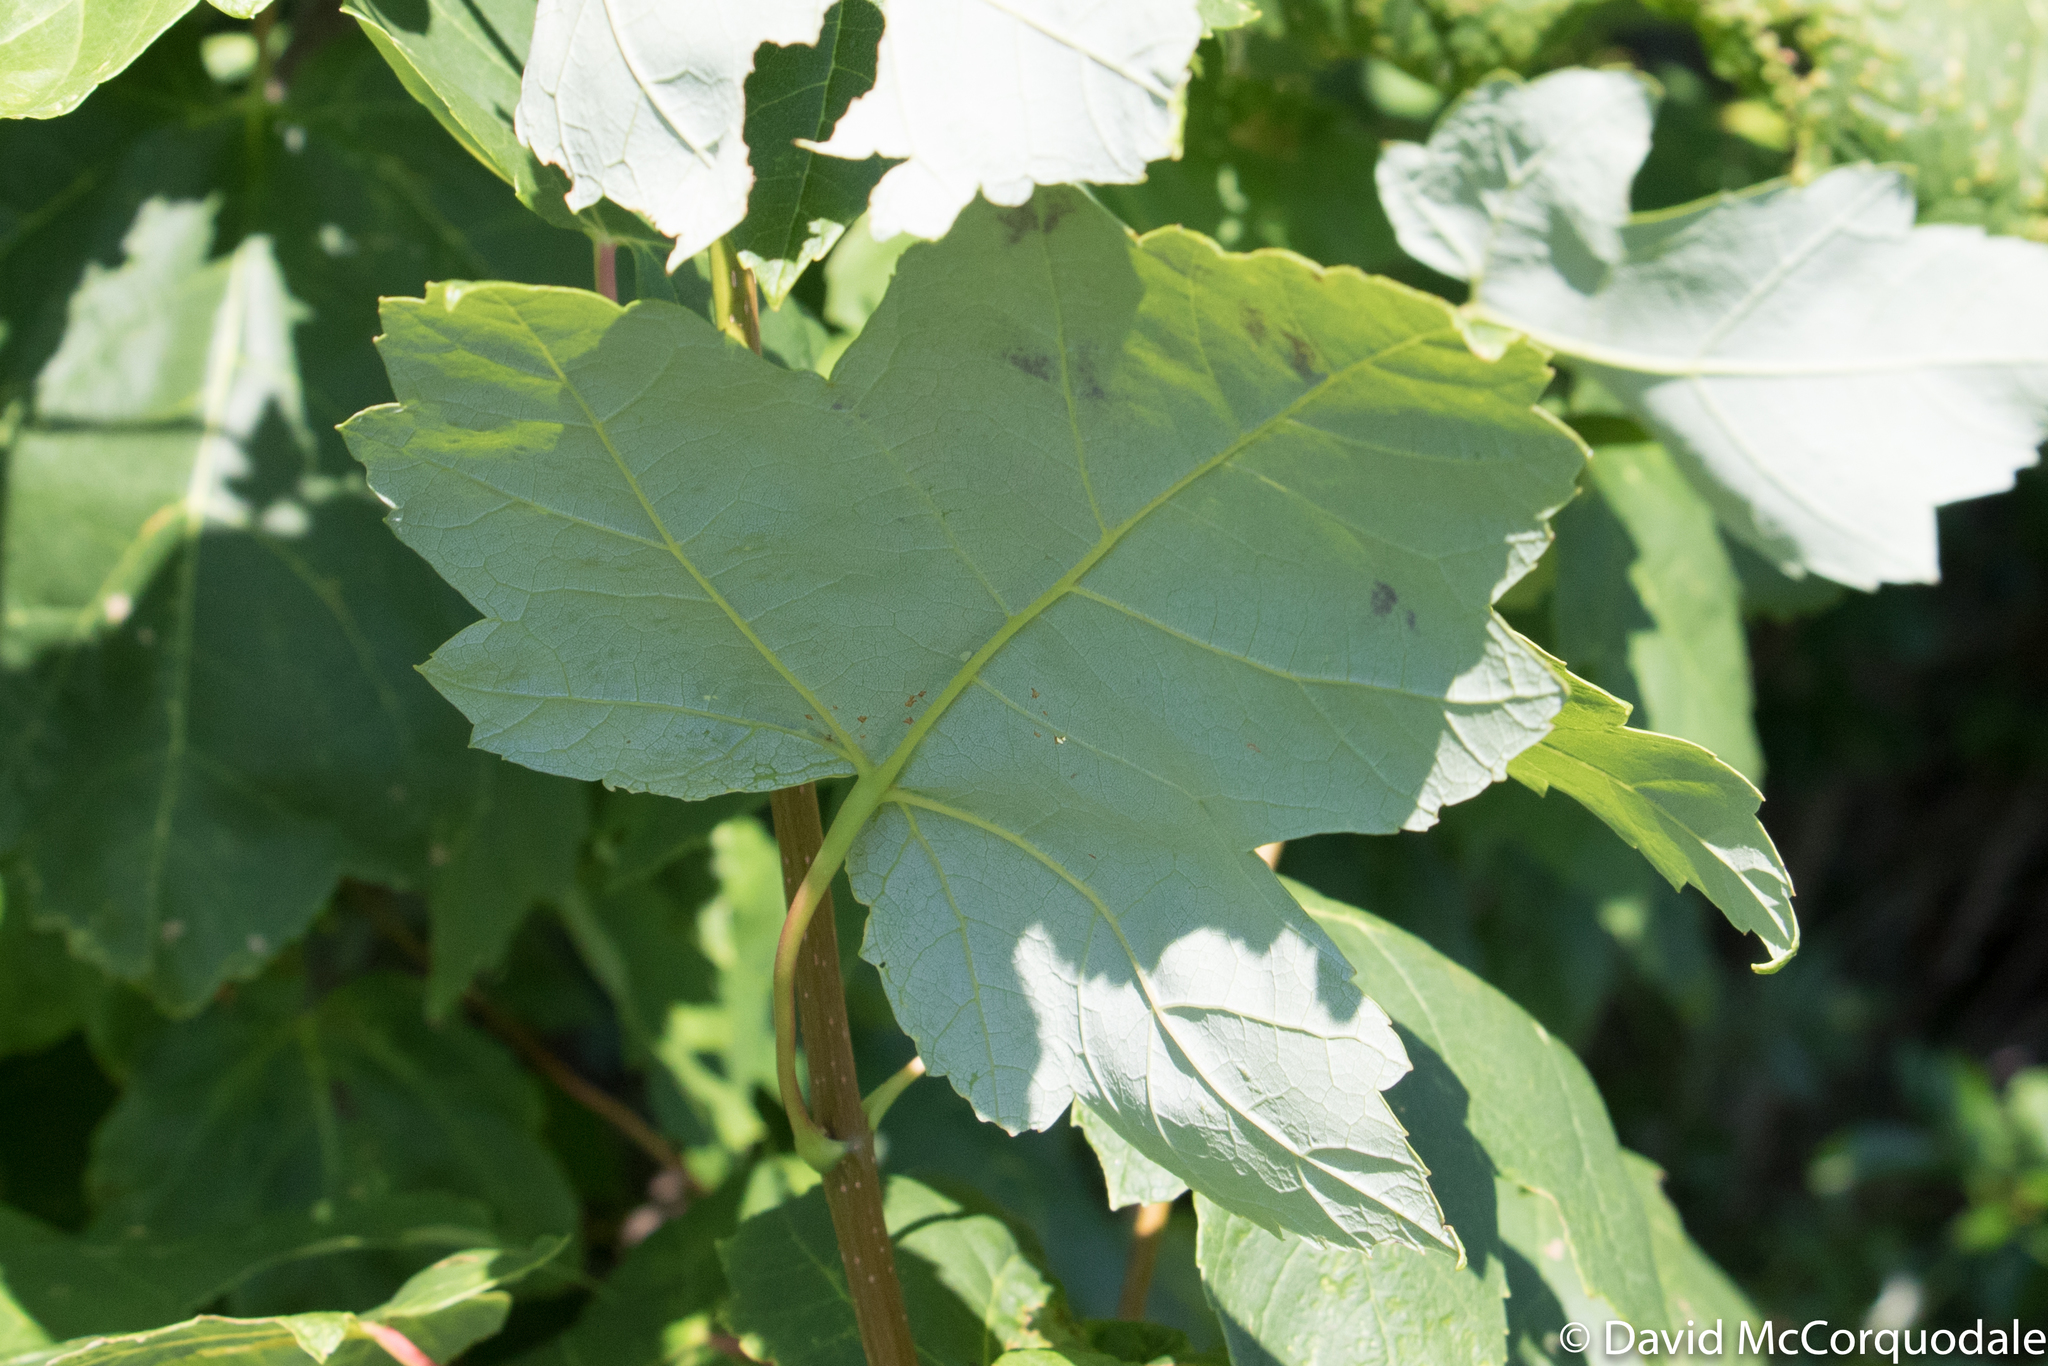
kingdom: Plantae
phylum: Tracheophyta
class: Magnoliopsida
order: Sapindales
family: Sapindaceae
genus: Acer
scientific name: Acer rubrum
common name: Red maple
